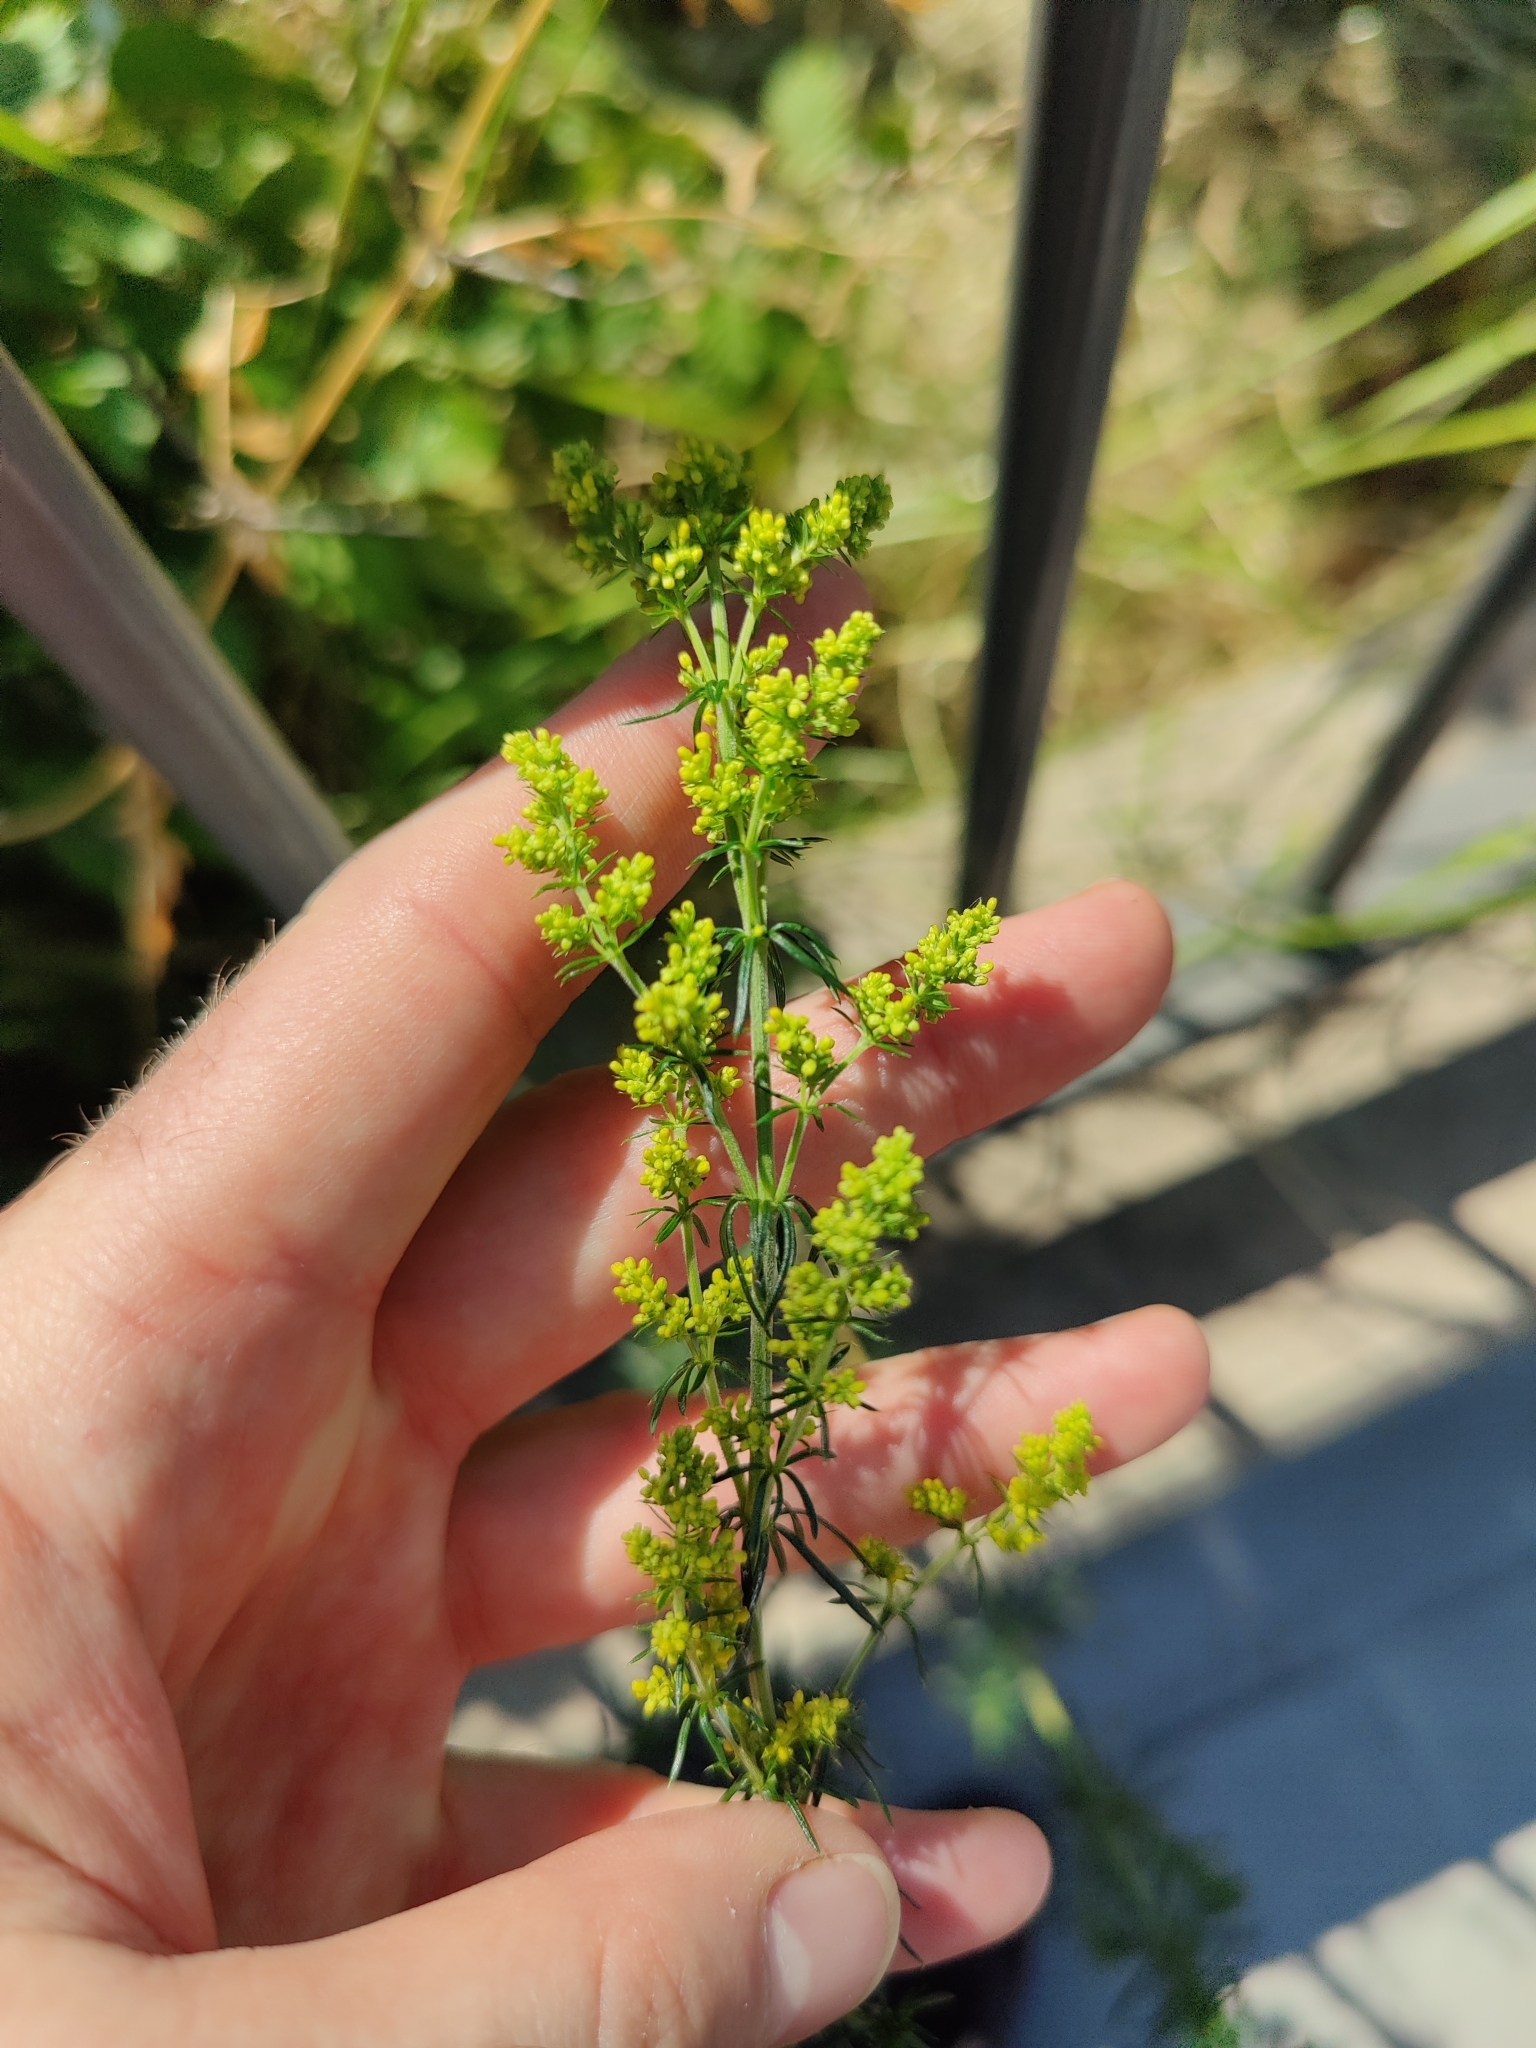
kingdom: Plantae
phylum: Tracheophyta
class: Magnoliopsida
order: Gentianales
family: Rubiaceae
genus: Galium
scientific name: Galium verum
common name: Lady's bedstraw
